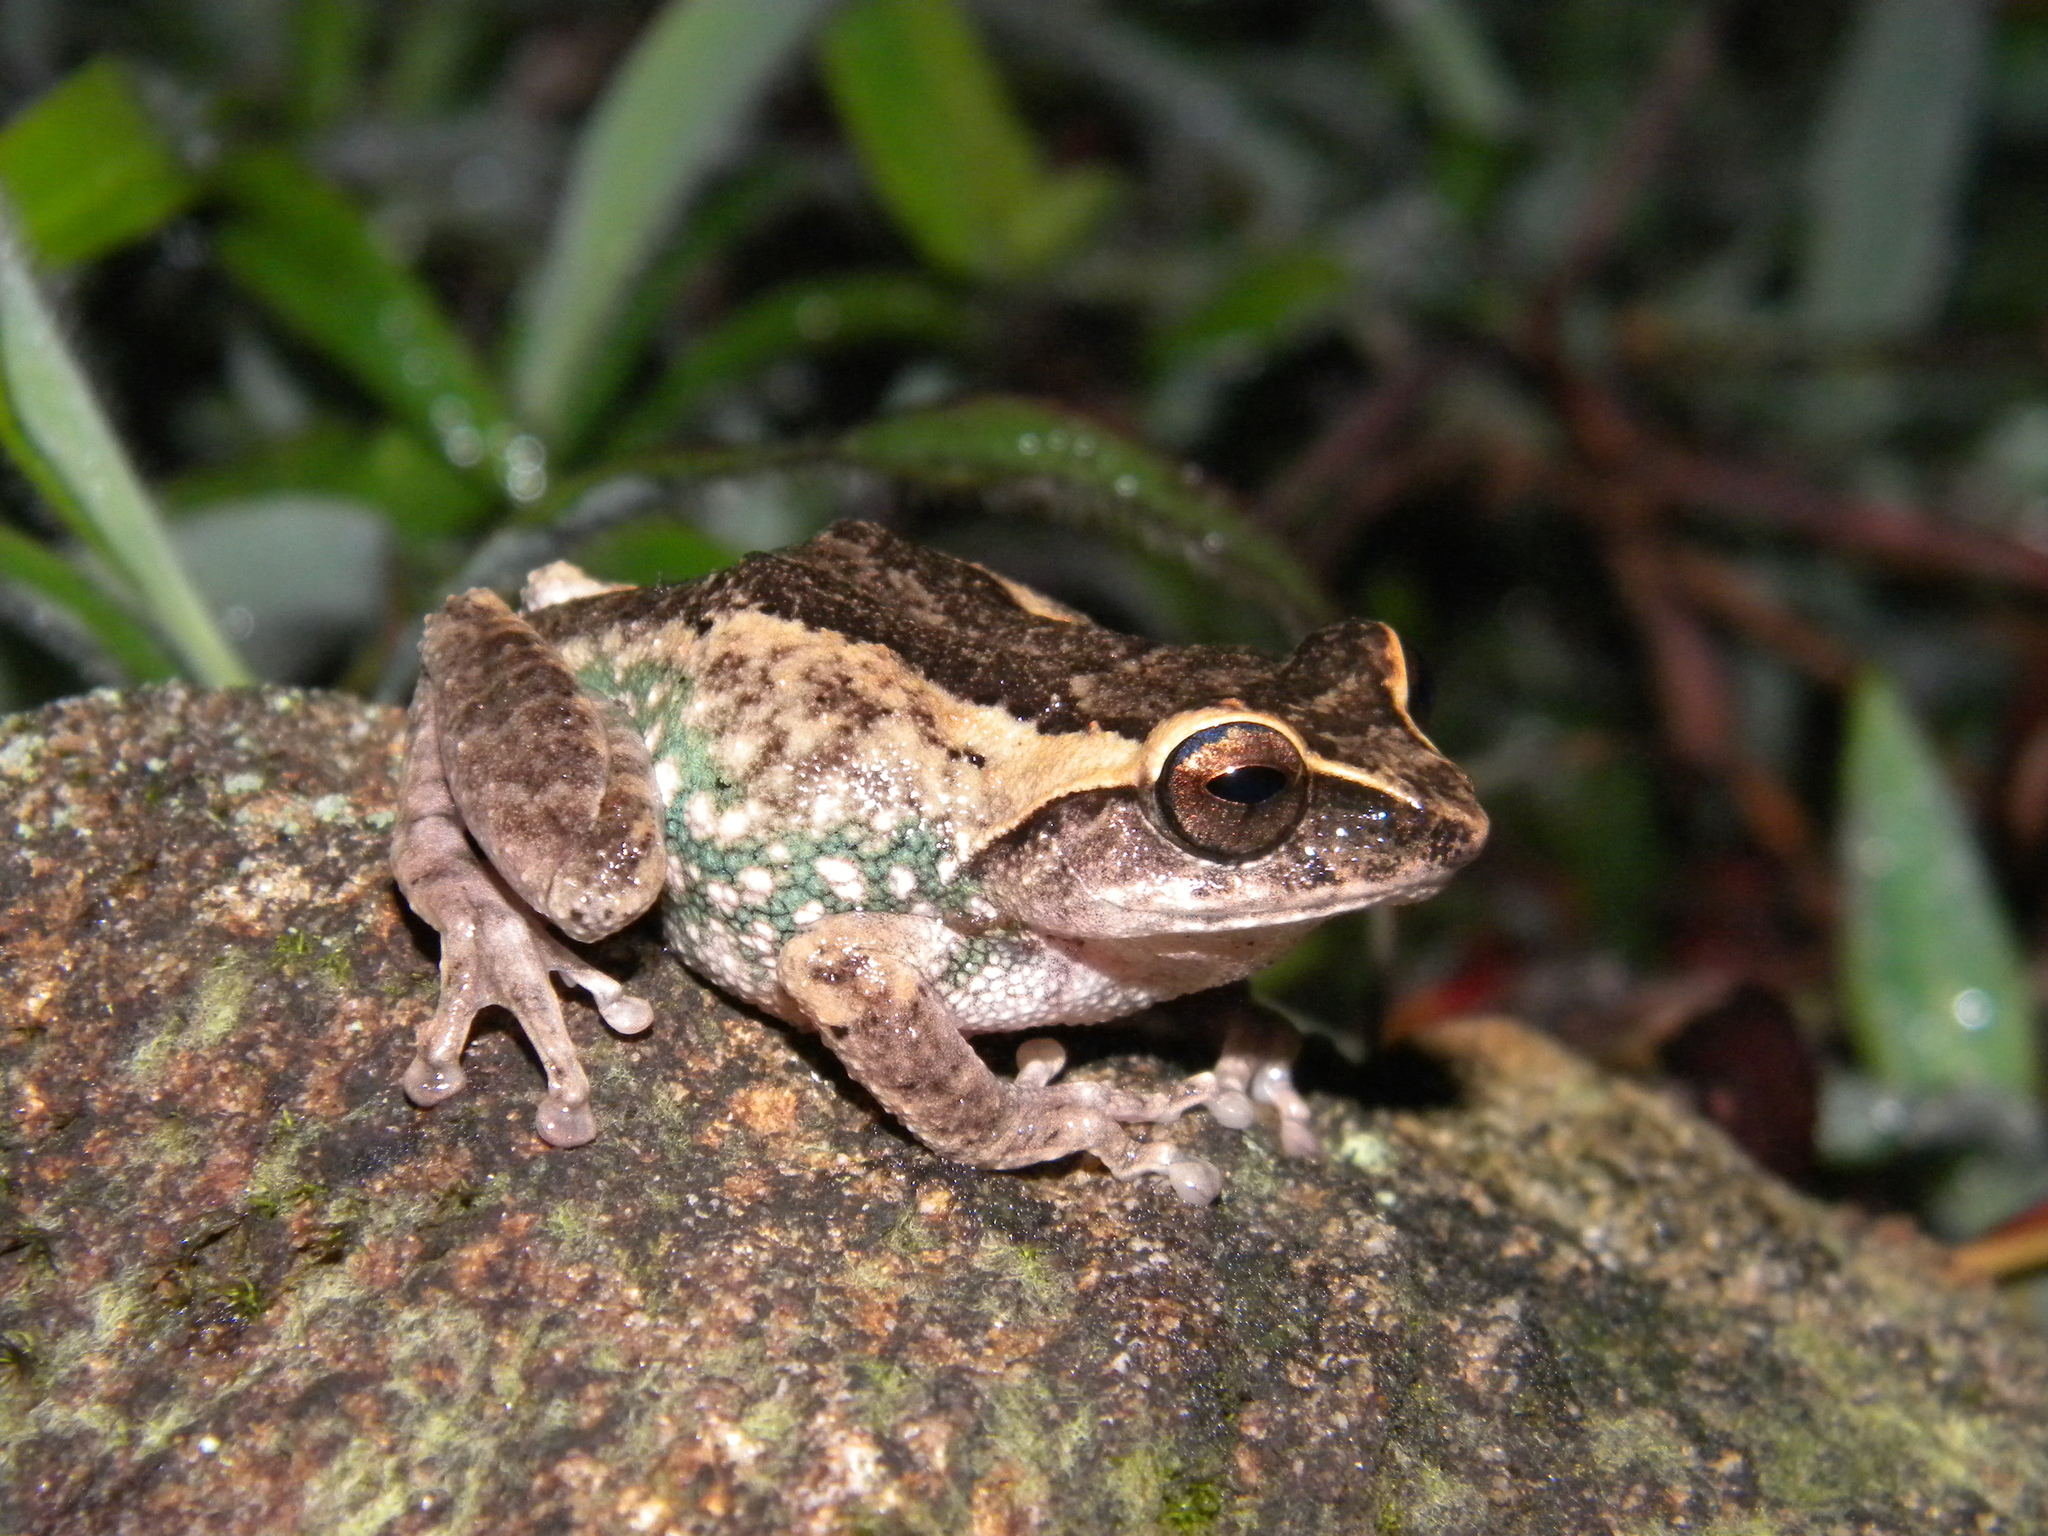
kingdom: Animalia
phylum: Chordata
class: Amphibia
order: Anura
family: Rhacophoridae
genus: Raorchestes
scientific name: Raorchestes johnceei
